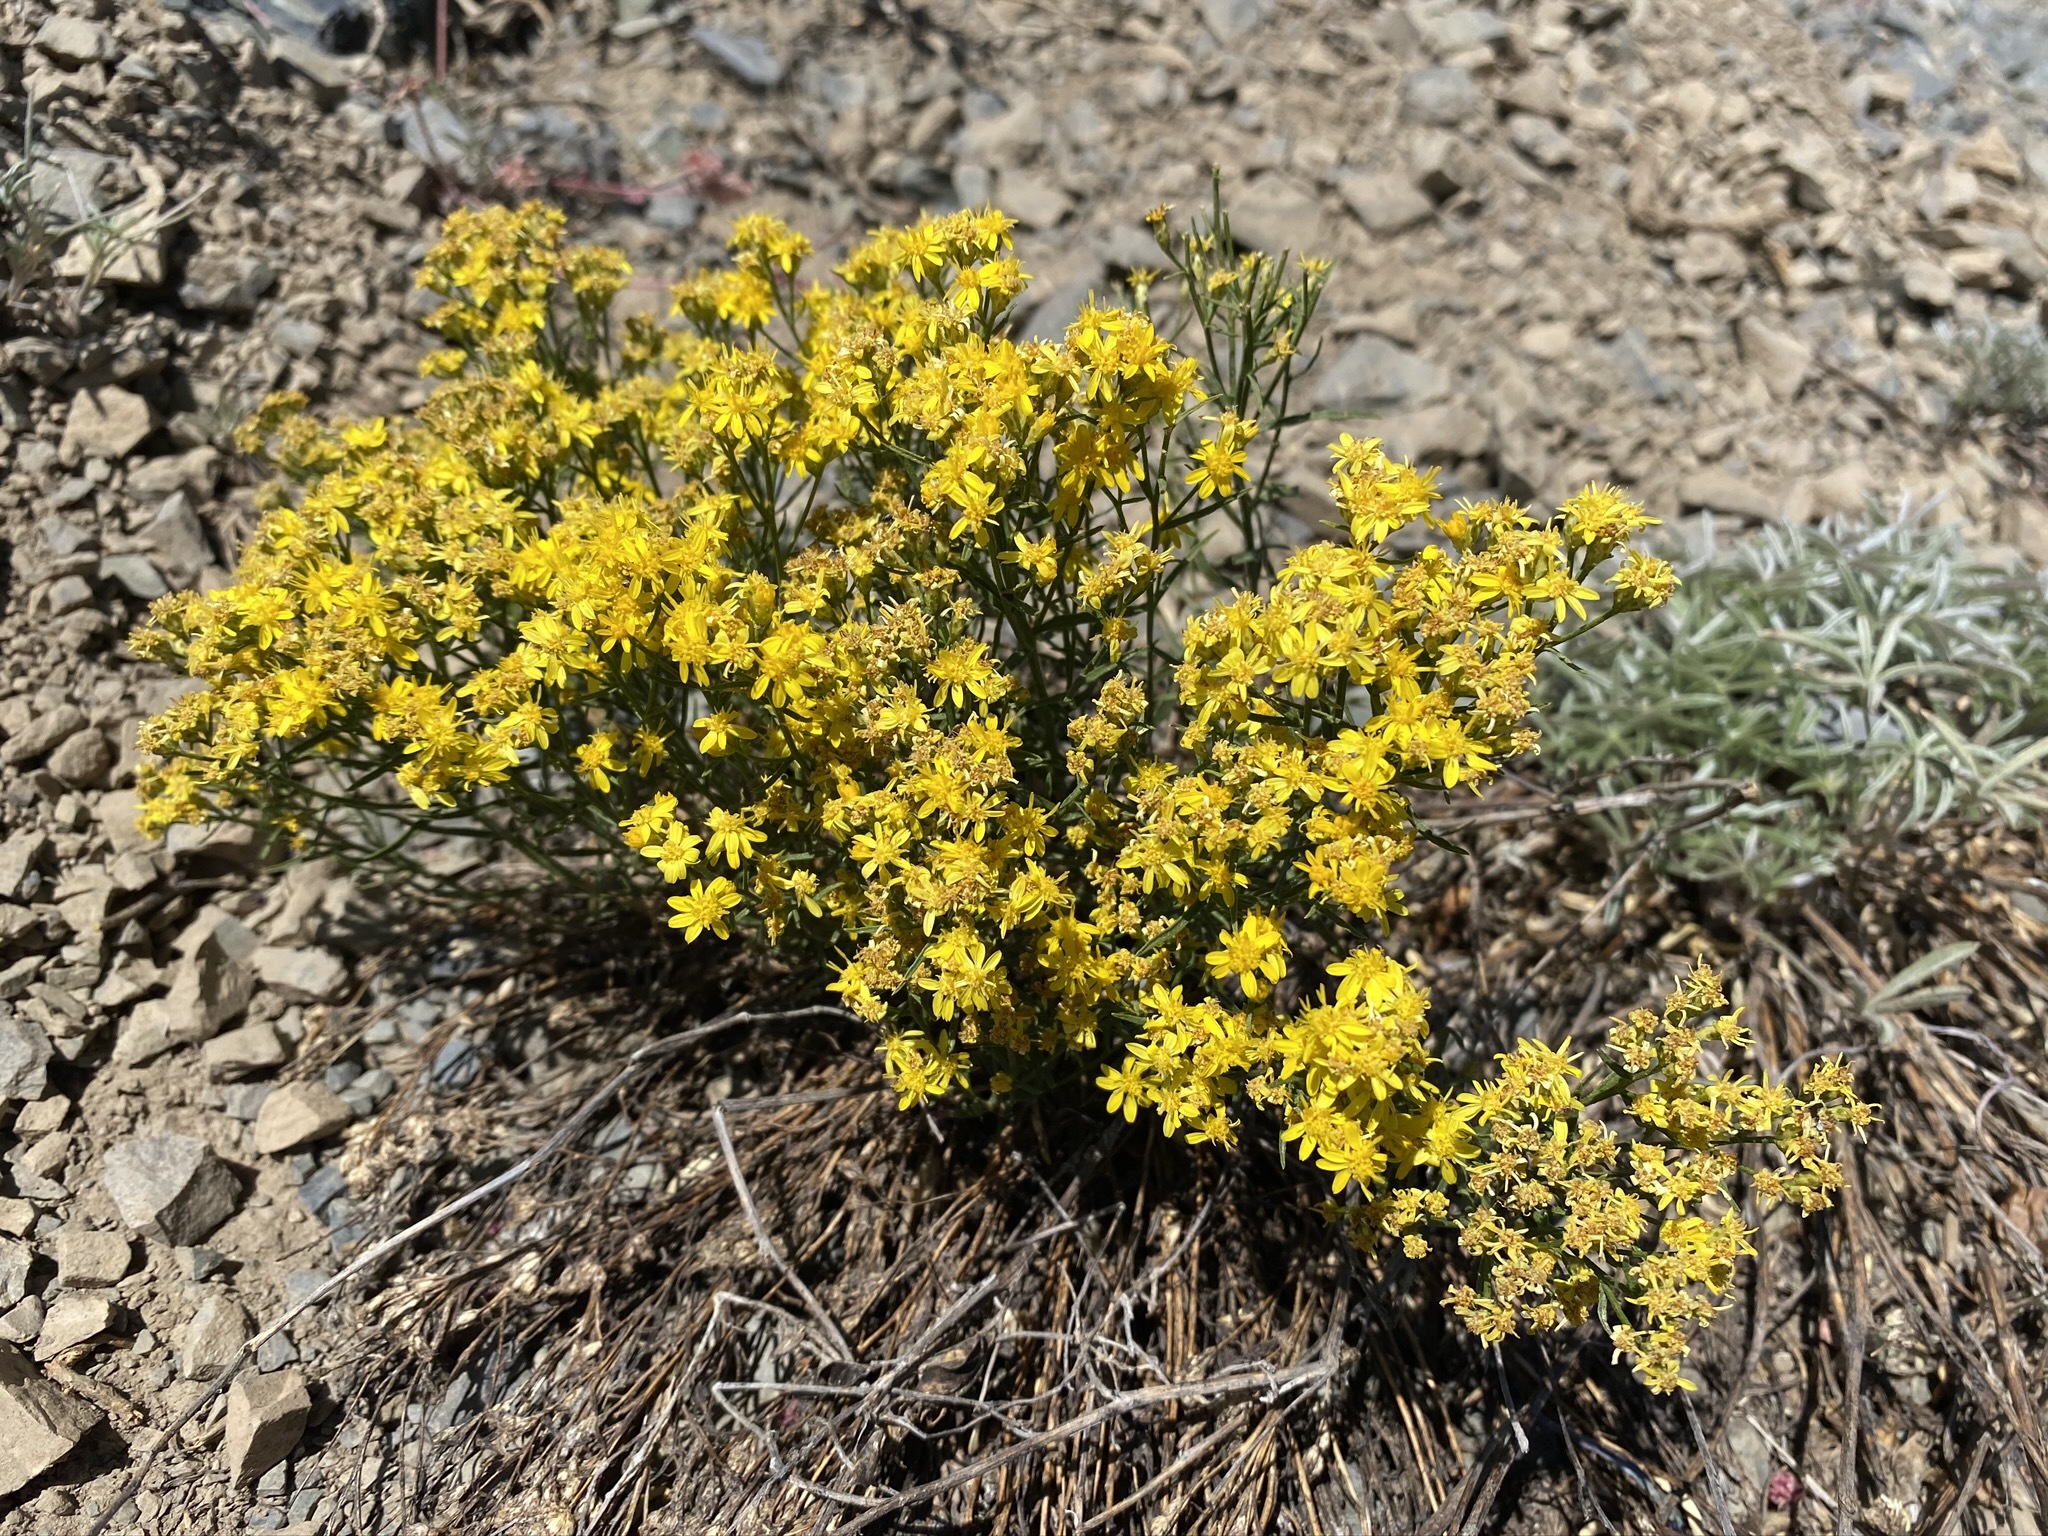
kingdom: Plantae
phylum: Tracheophyta
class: Magnoliopsida
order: Asterales
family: Asteraceae
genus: Gutierrezia
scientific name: Gutierrezia sarothrae
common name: Broom snakeweed
